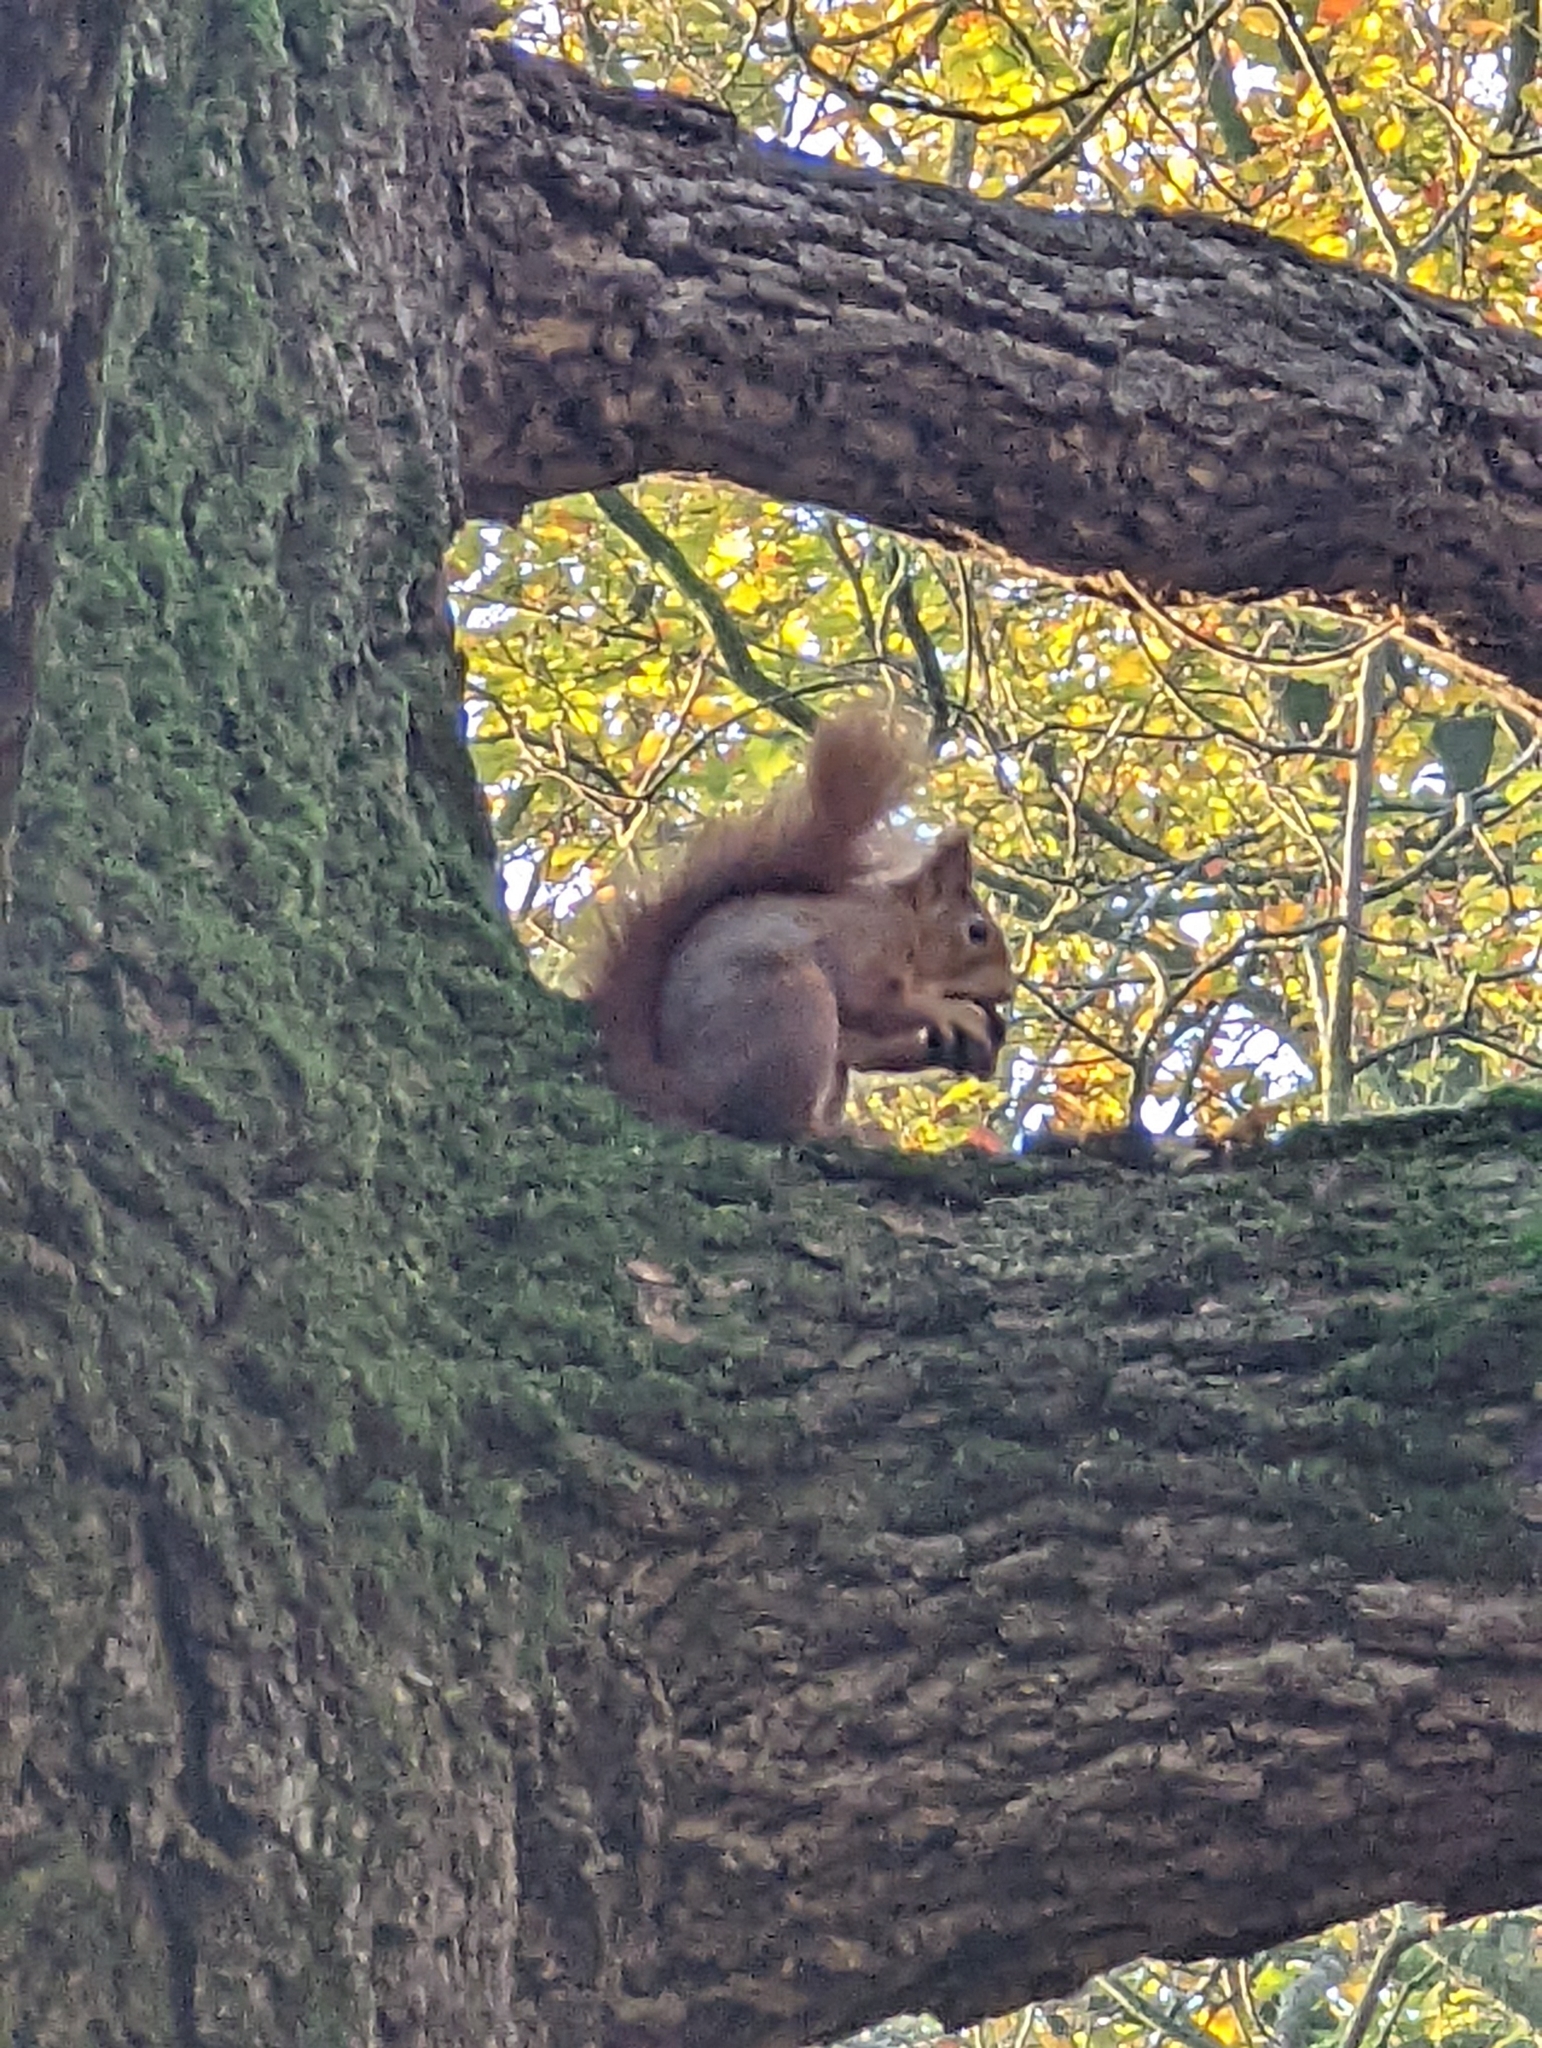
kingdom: Animalia
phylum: Chordata
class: Mammalia
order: Rodentia
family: Sciuridae
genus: Sciurus
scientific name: Sciurus vulgaris
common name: Eurasian red squirrel
